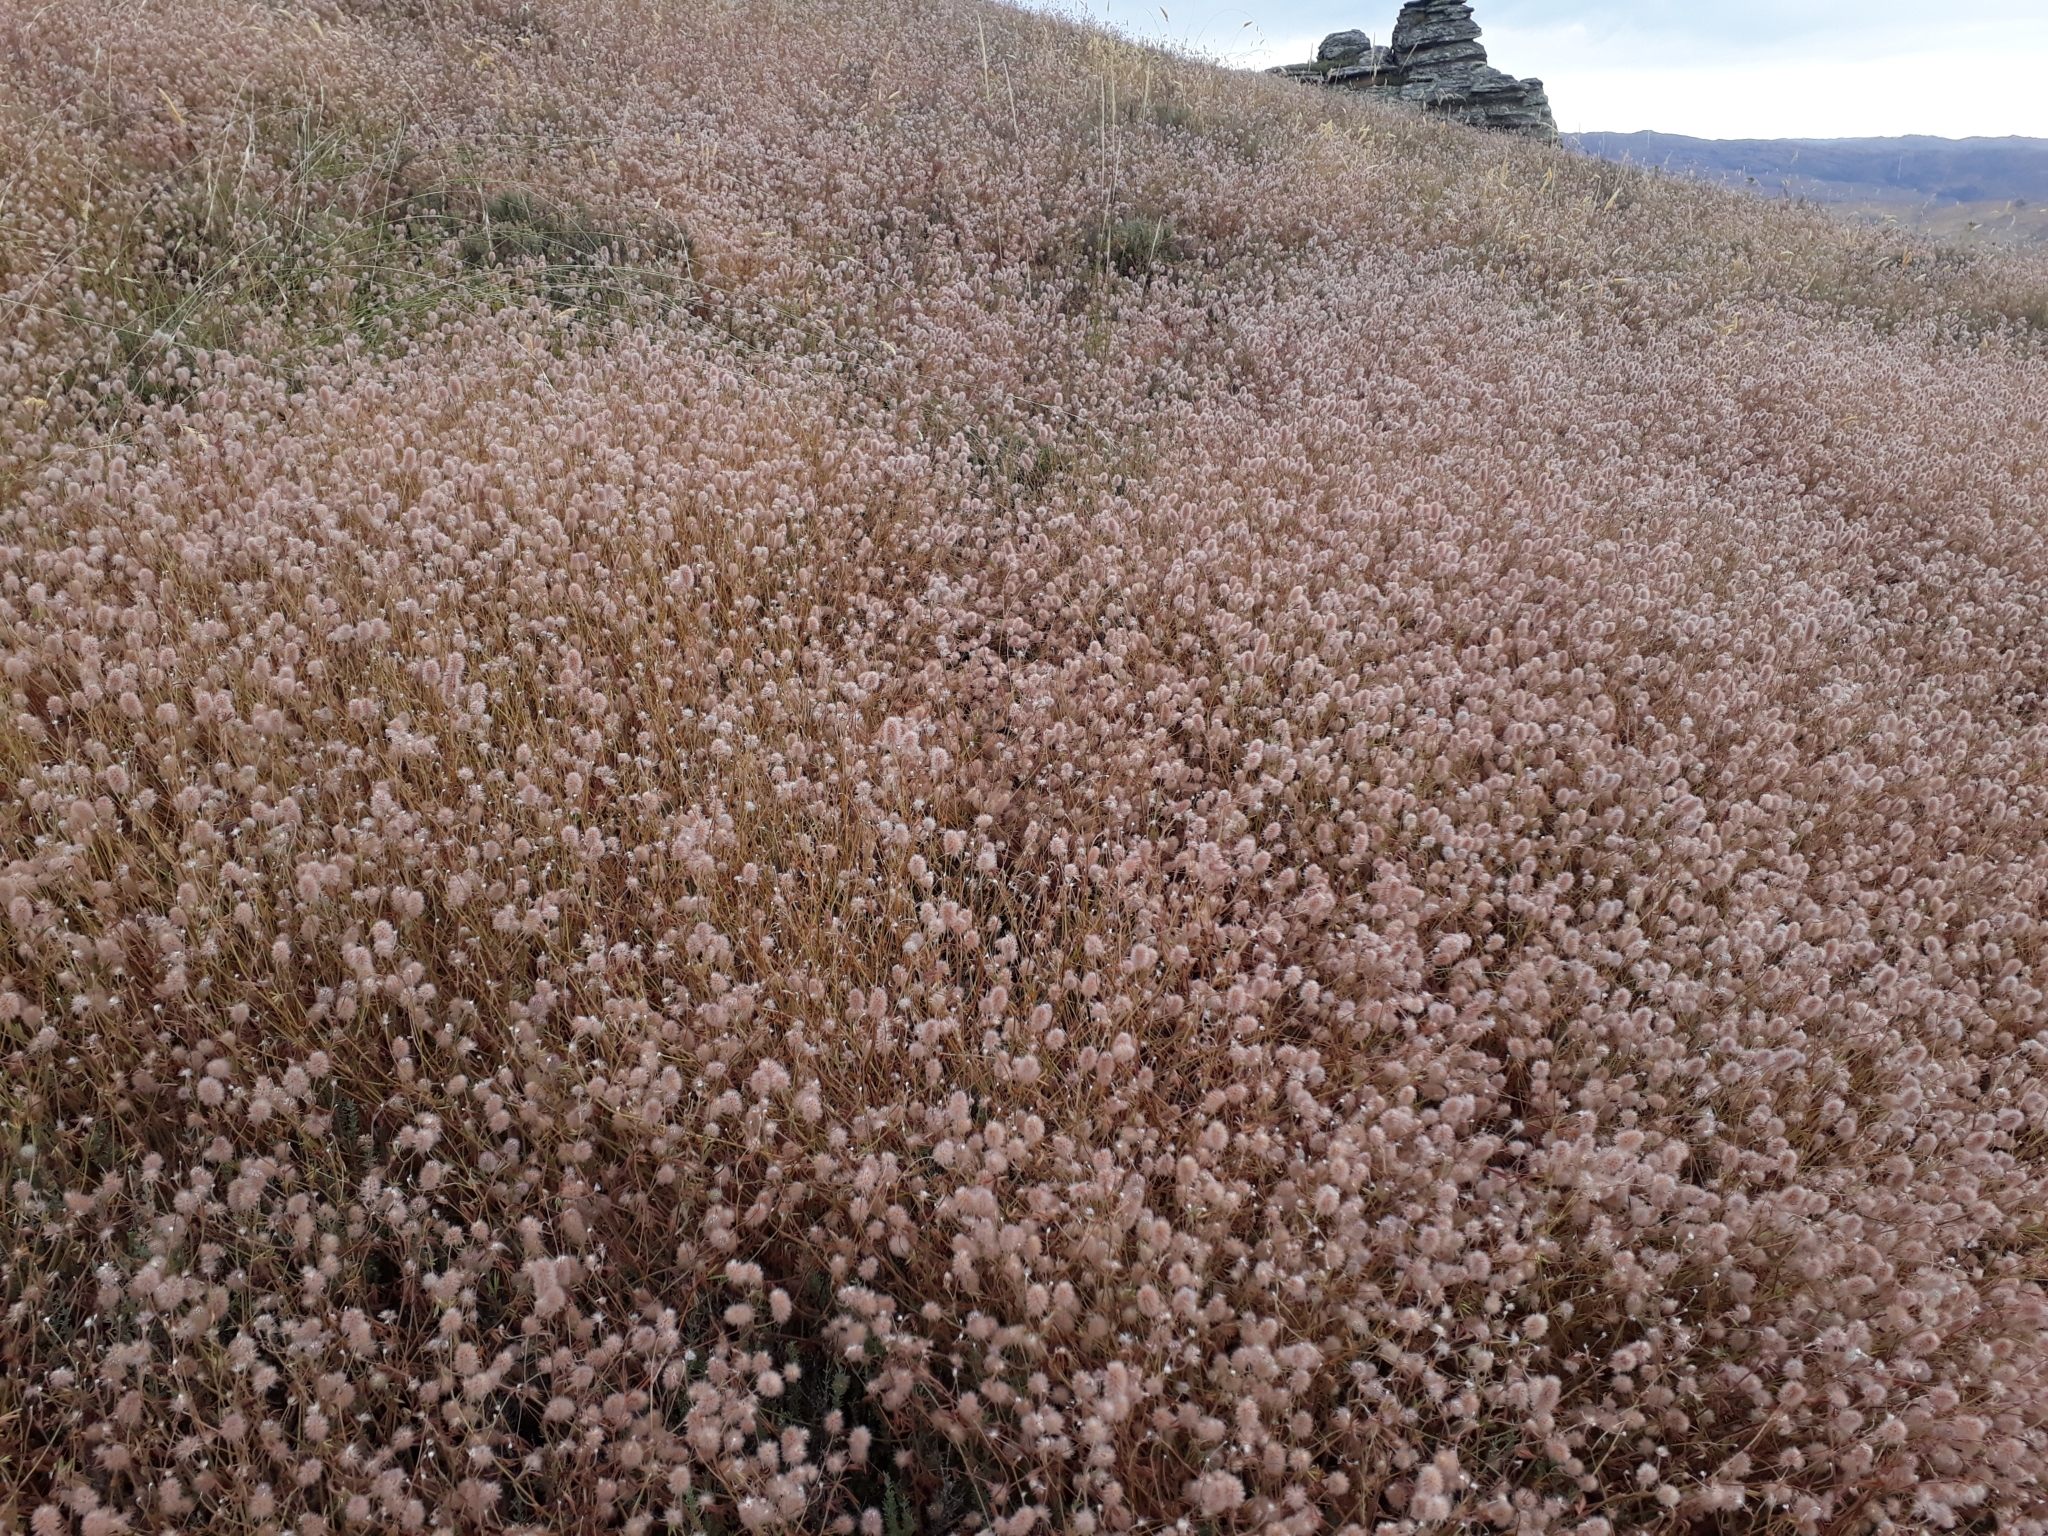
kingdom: Plantae
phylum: Tracheophyta
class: Magnoliopsida
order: Fabales
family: Fabaceae
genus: Trifolium
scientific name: Trifolium arvense
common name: Hare's-foot clover
